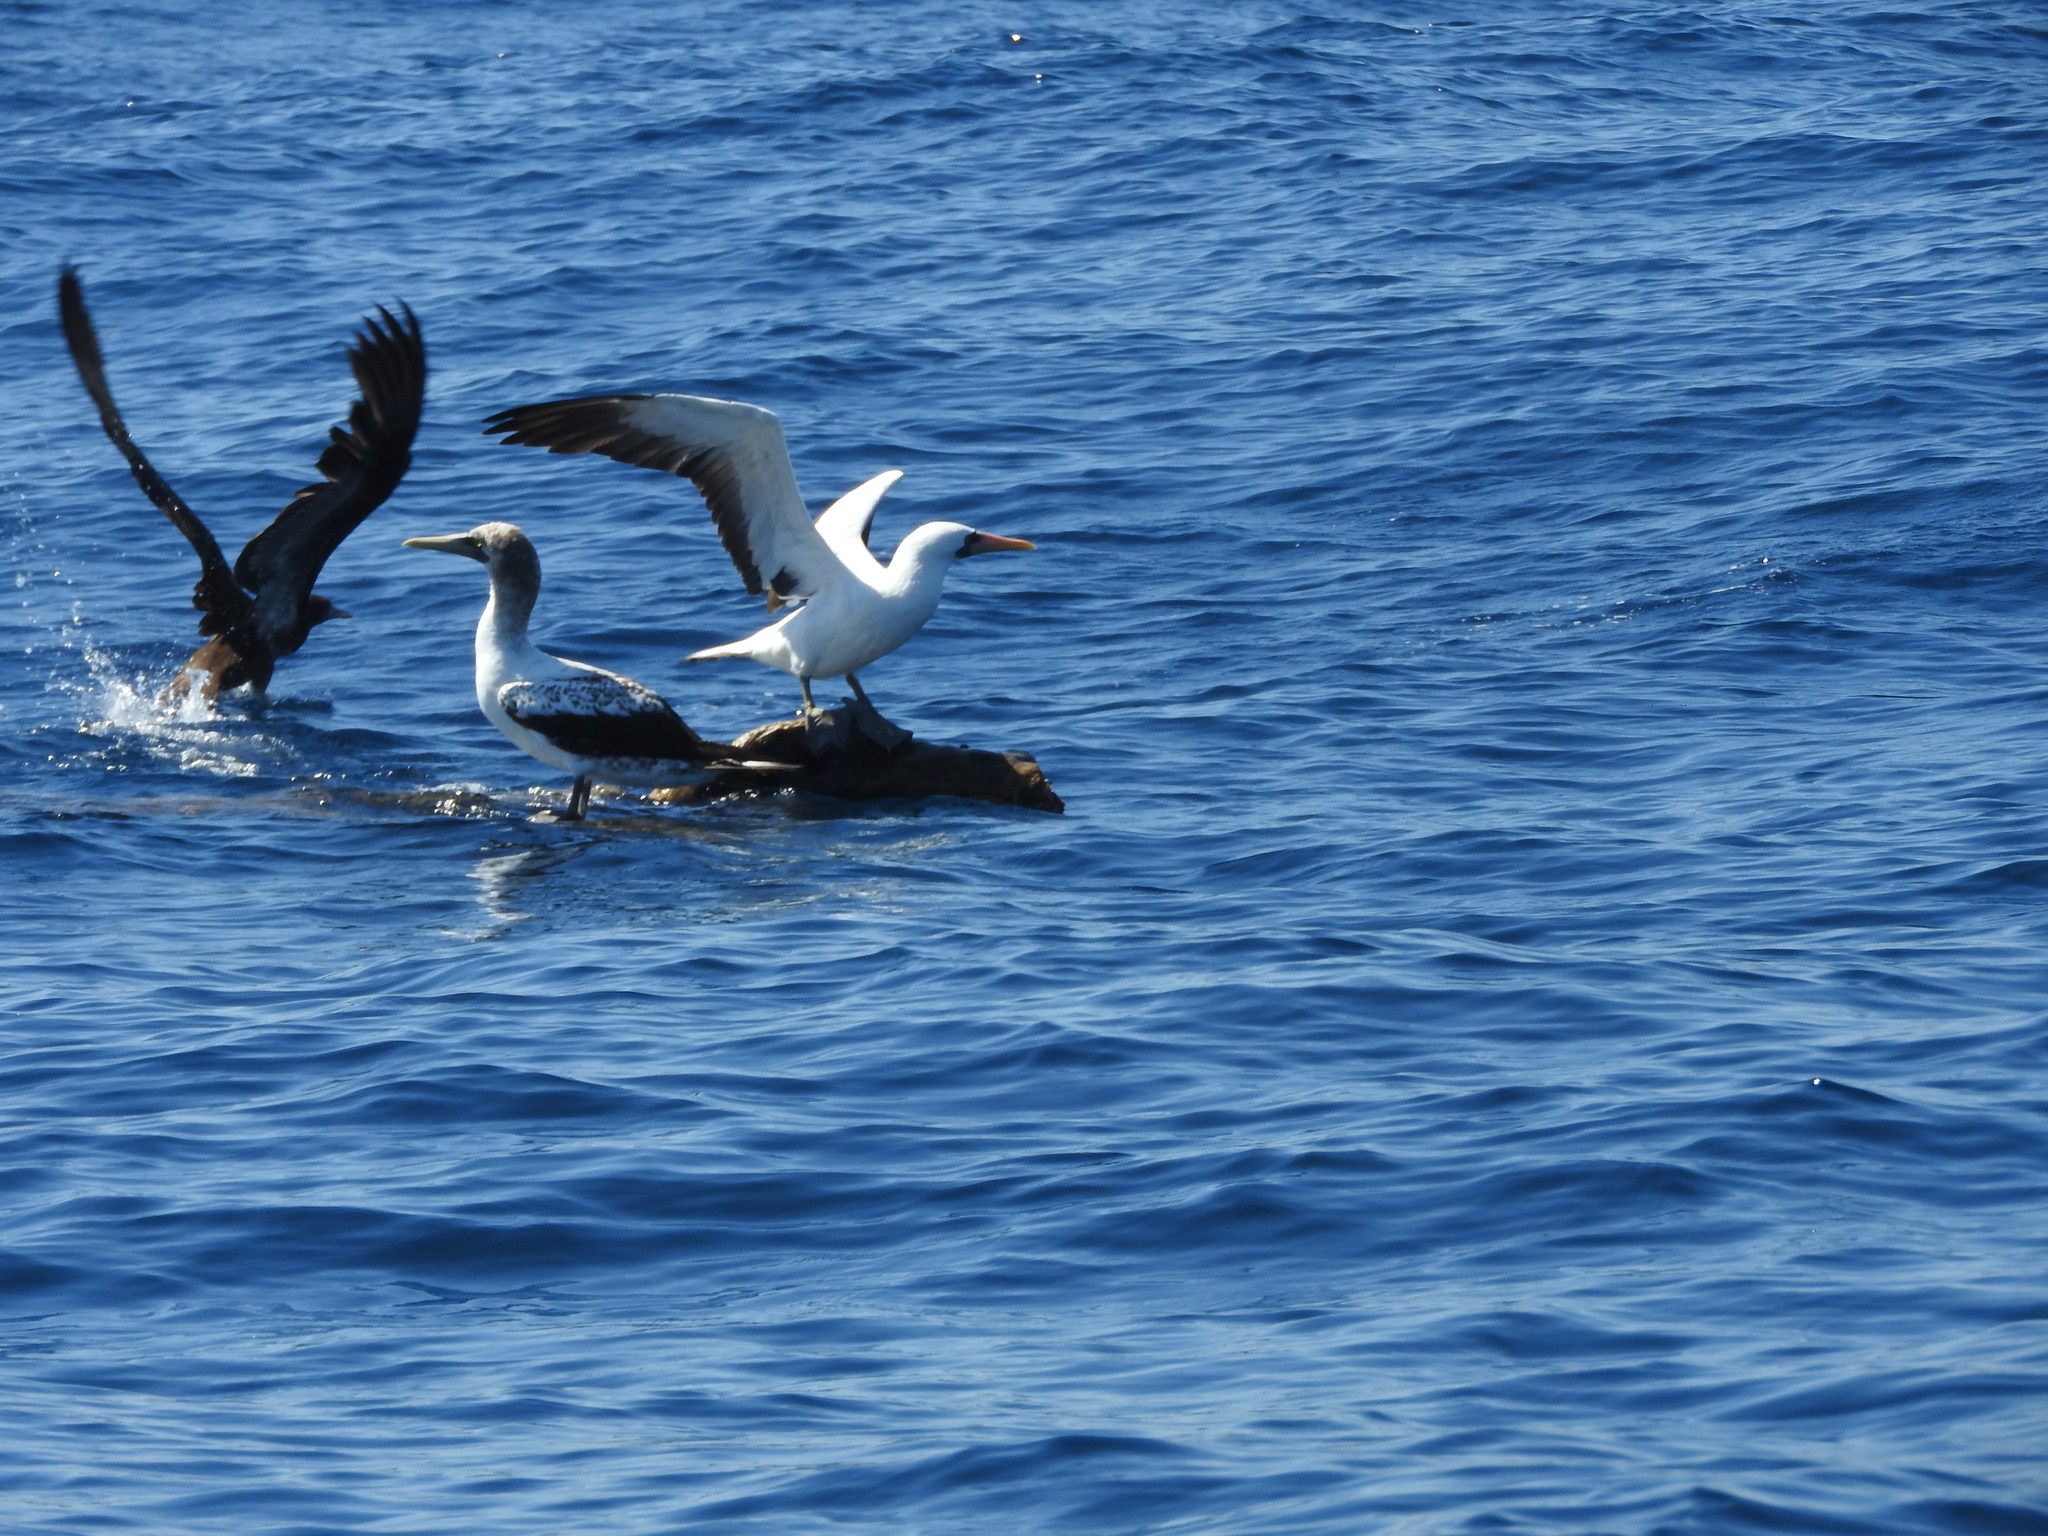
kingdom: Animalia
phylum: Chordata
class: Aves
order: Suliformes
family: Sulidae
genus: Sula
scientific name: Sula granti
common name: Nazca booby
